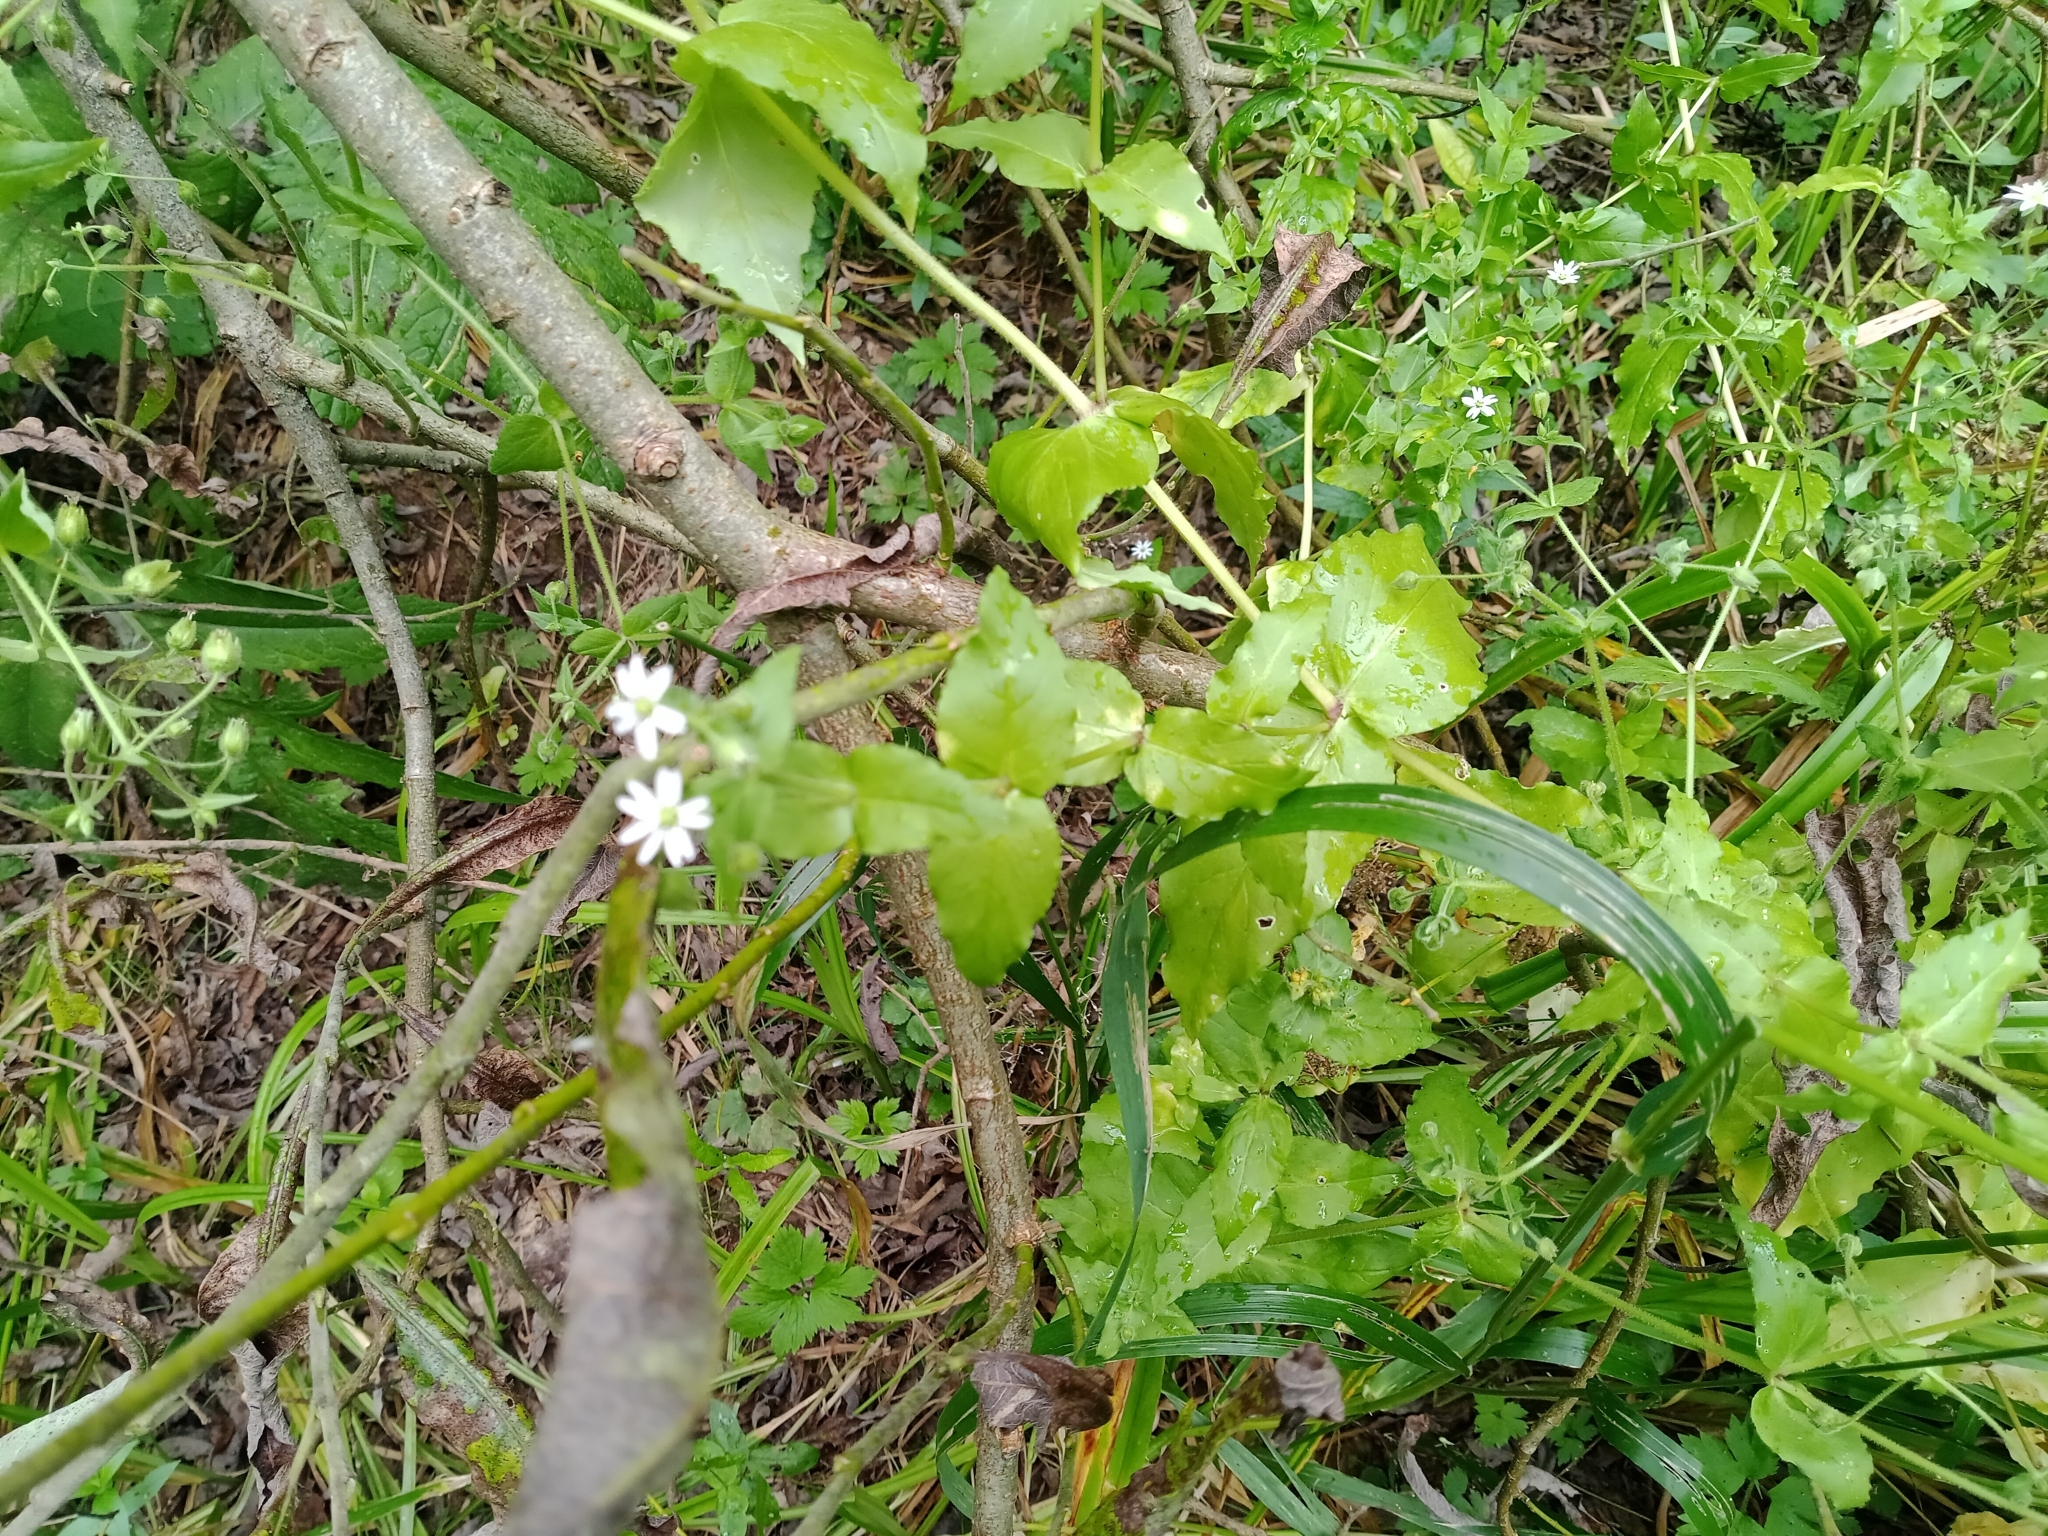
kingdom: Plantae
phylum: Tracheophyta
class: Magnoliopsida
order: Caryophyllales
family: Caryophyllaceae
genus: Stellaria
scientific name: Stellaria aquatica
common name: Water chickweed
